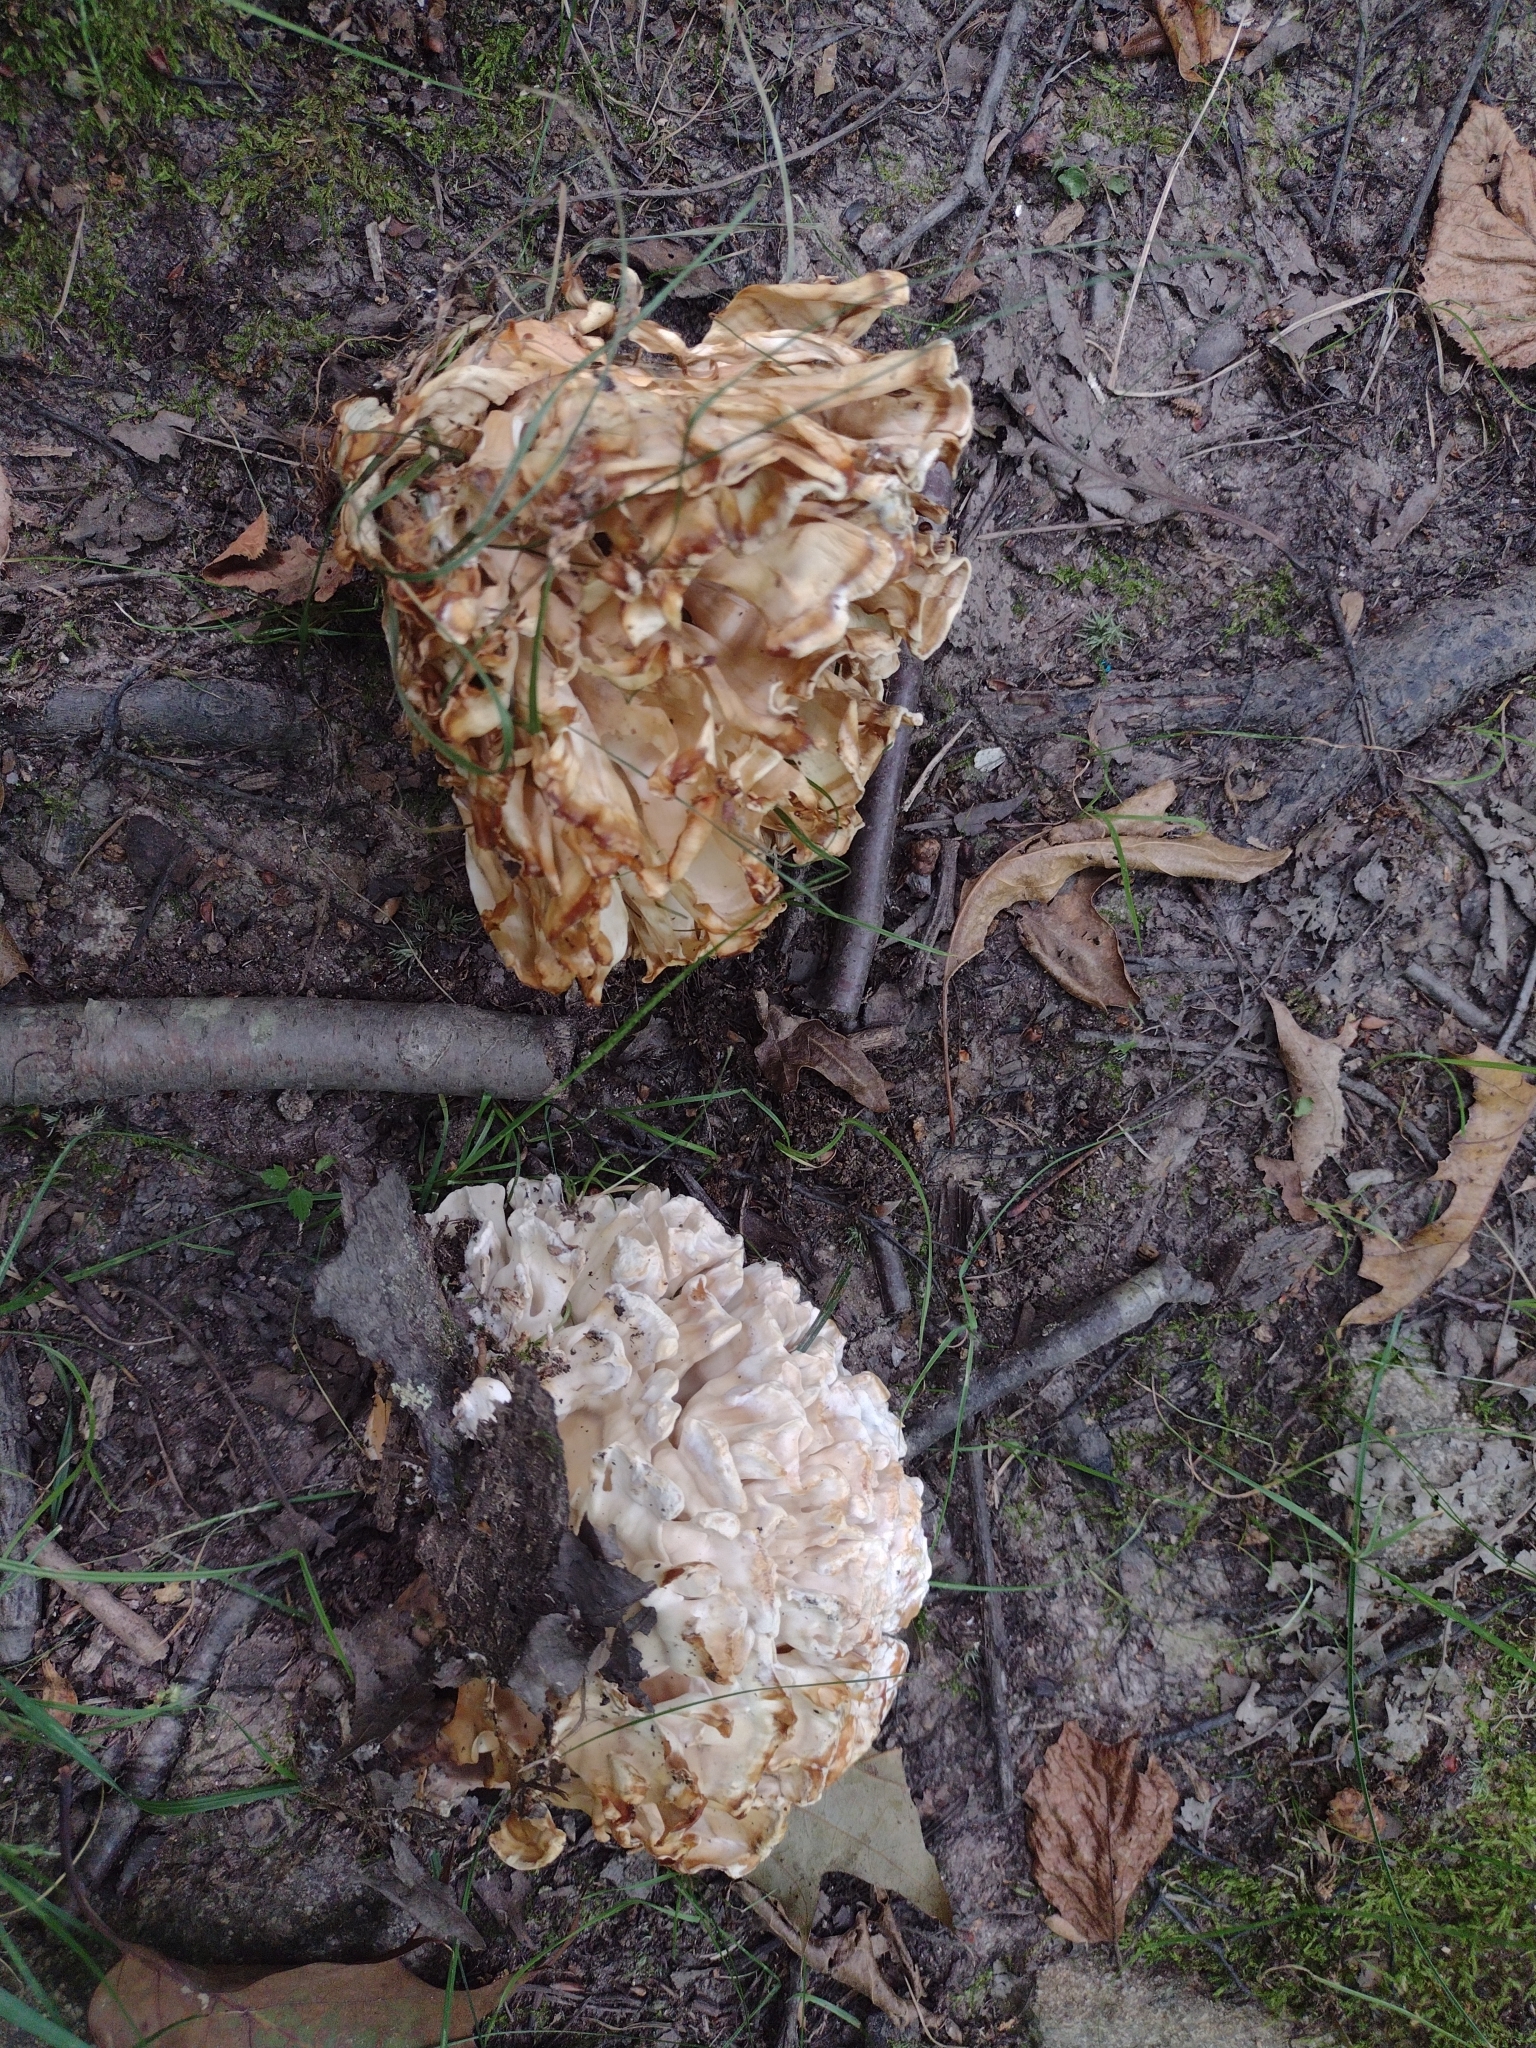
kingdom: Fungi
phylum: Basidiomycota
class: Agaricomycetes
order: Polyporales
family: Sparassidaceae
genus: Sparassis
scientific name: Sparassis spathulata
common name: Eastern cauliflower mushroom
